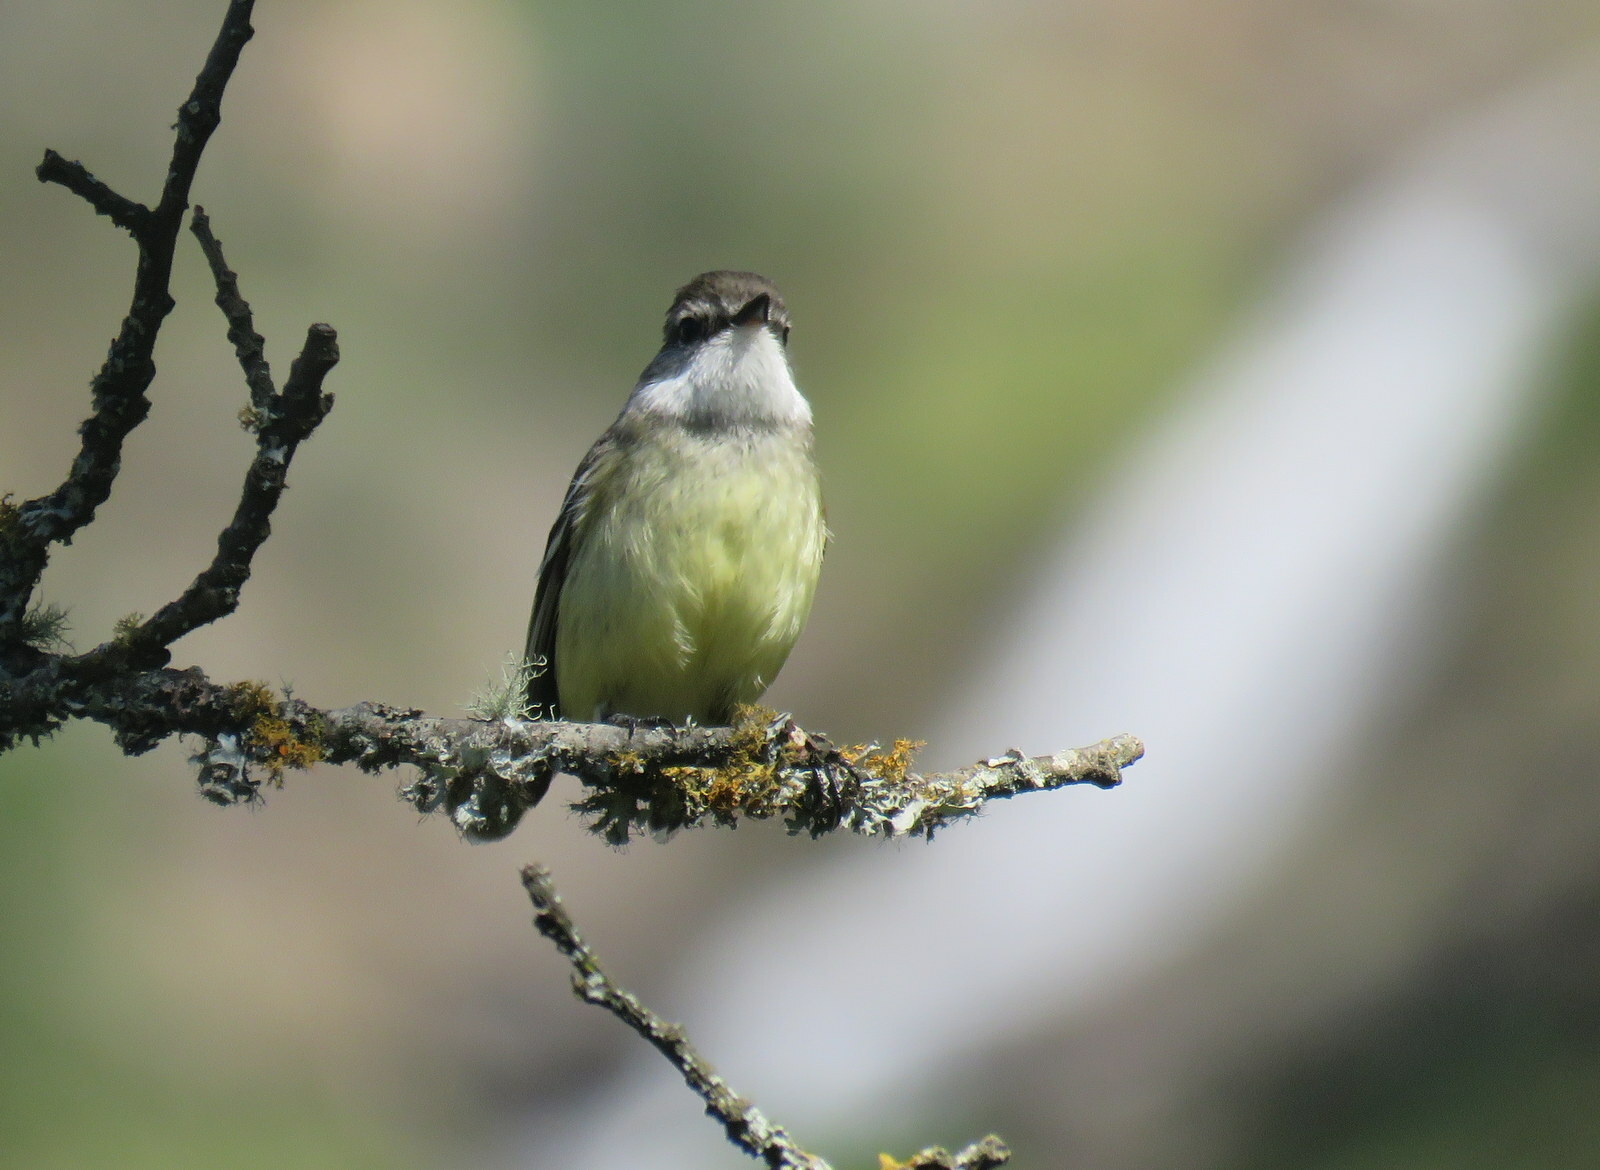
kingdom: Animalia
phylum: Chordata
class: Aves
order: Passeriformes
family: Tyrannidae
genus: Mecocerculus
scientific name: Mecocerculus leucophrys
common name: White-throated tyrannulet
